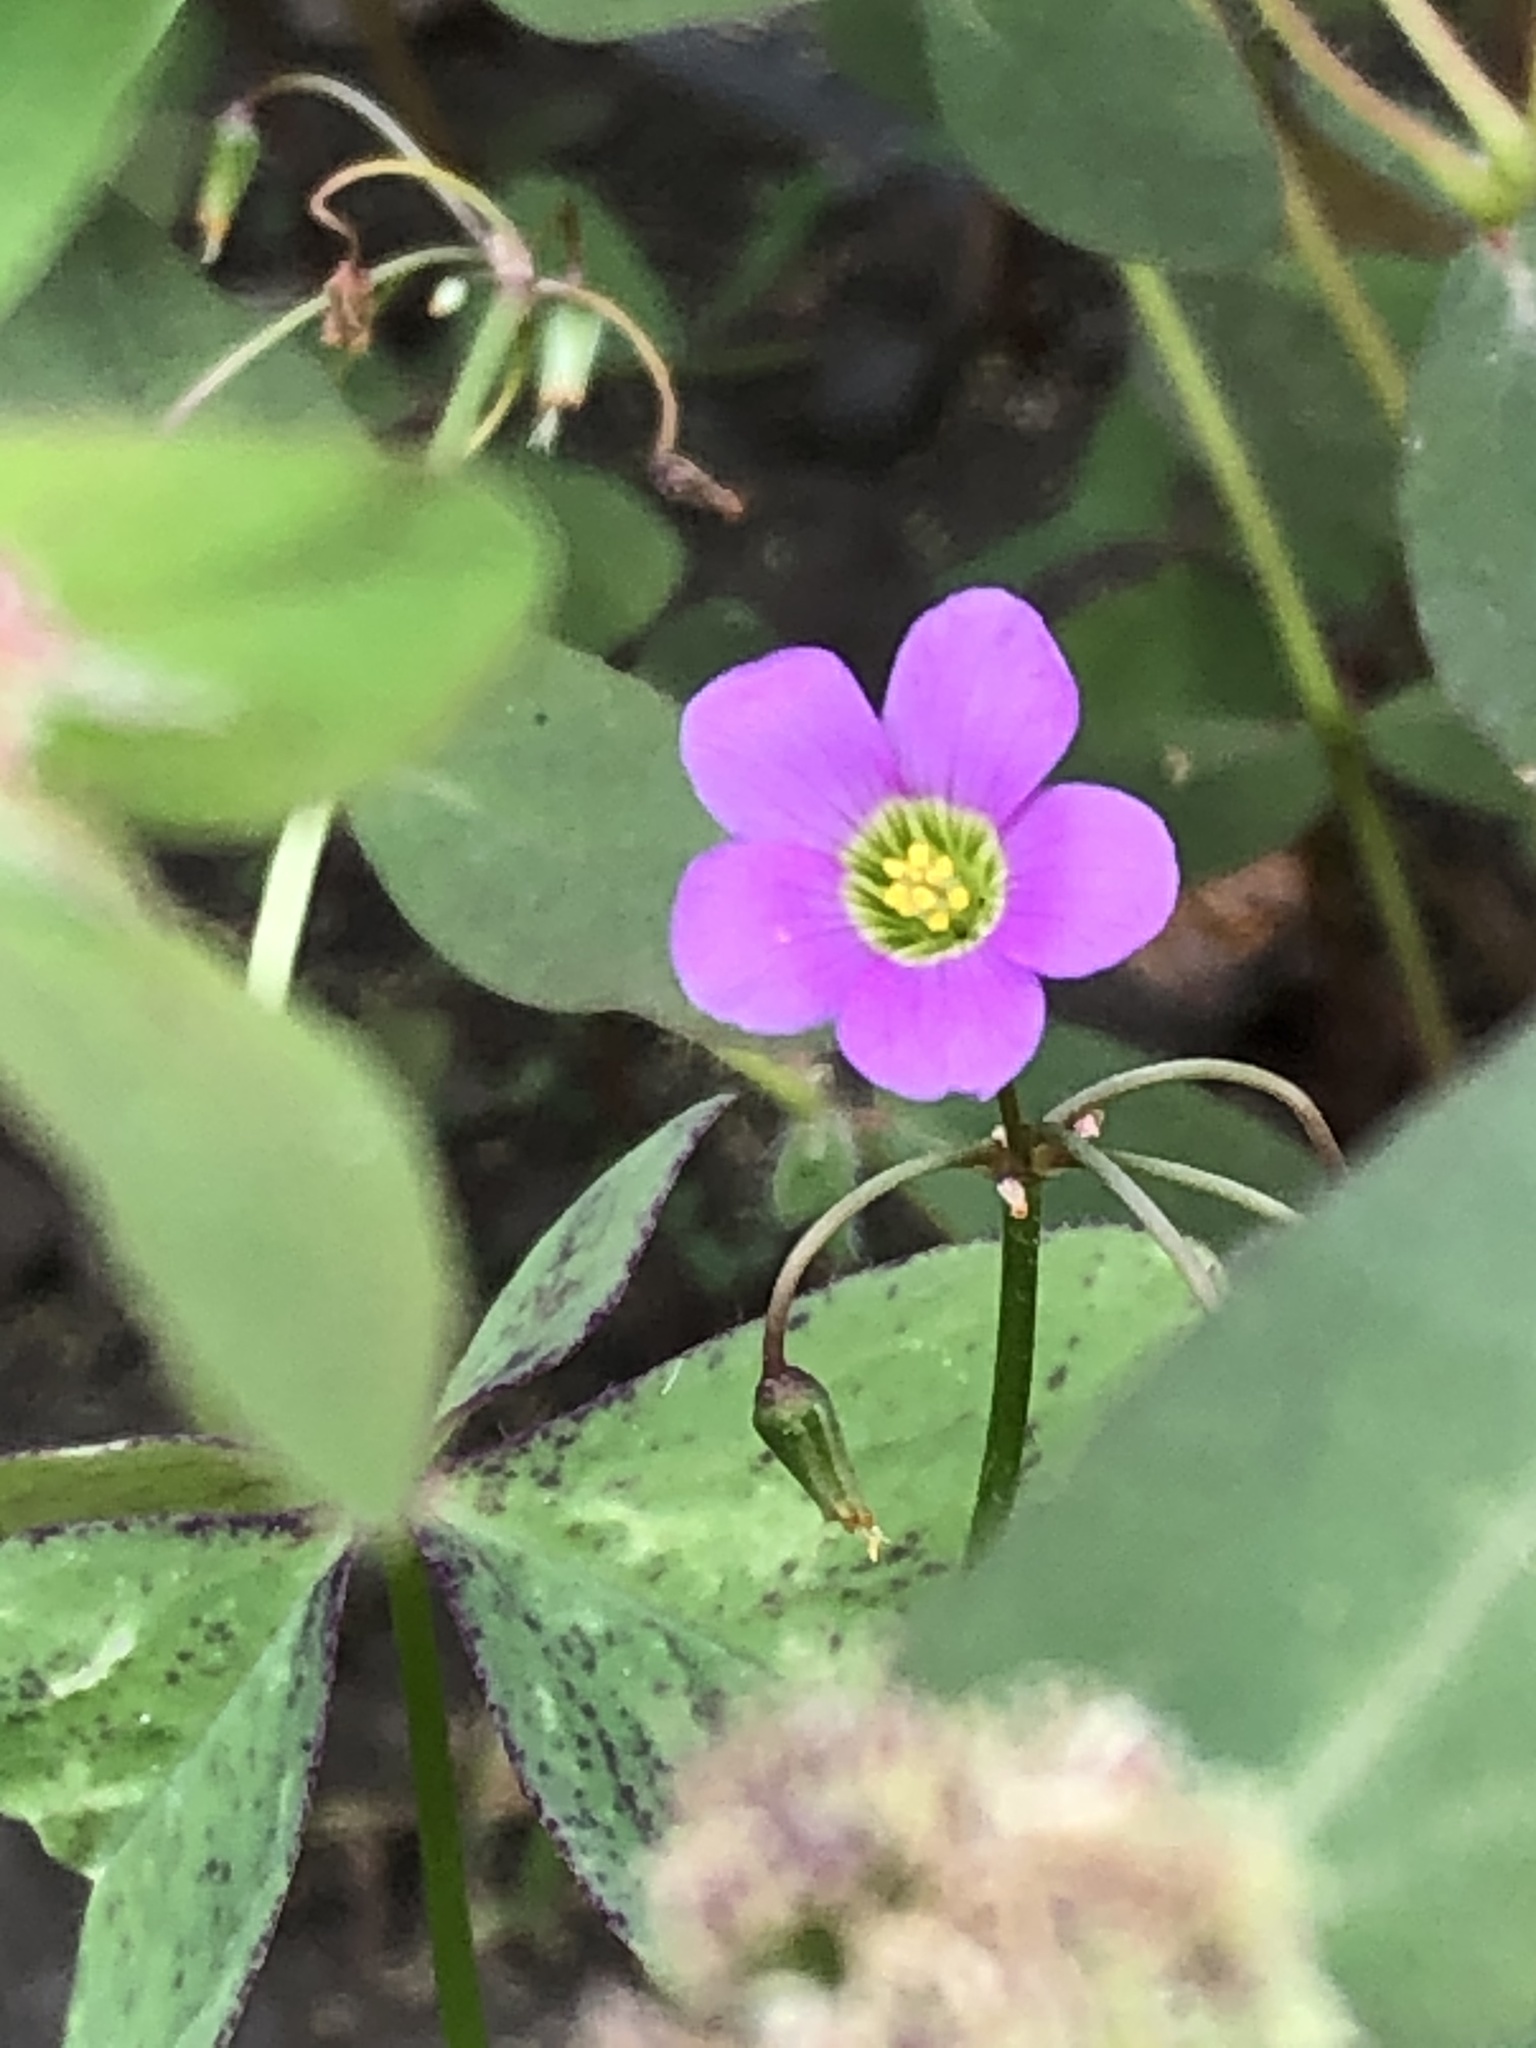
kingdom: Plantae
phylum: Tracheophyta
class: Magnoliopsida
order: Oxalidales
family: Oxalidaceae
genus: Oxalis
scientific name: Oxalis latifolia
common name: Garden pink-sorrel
